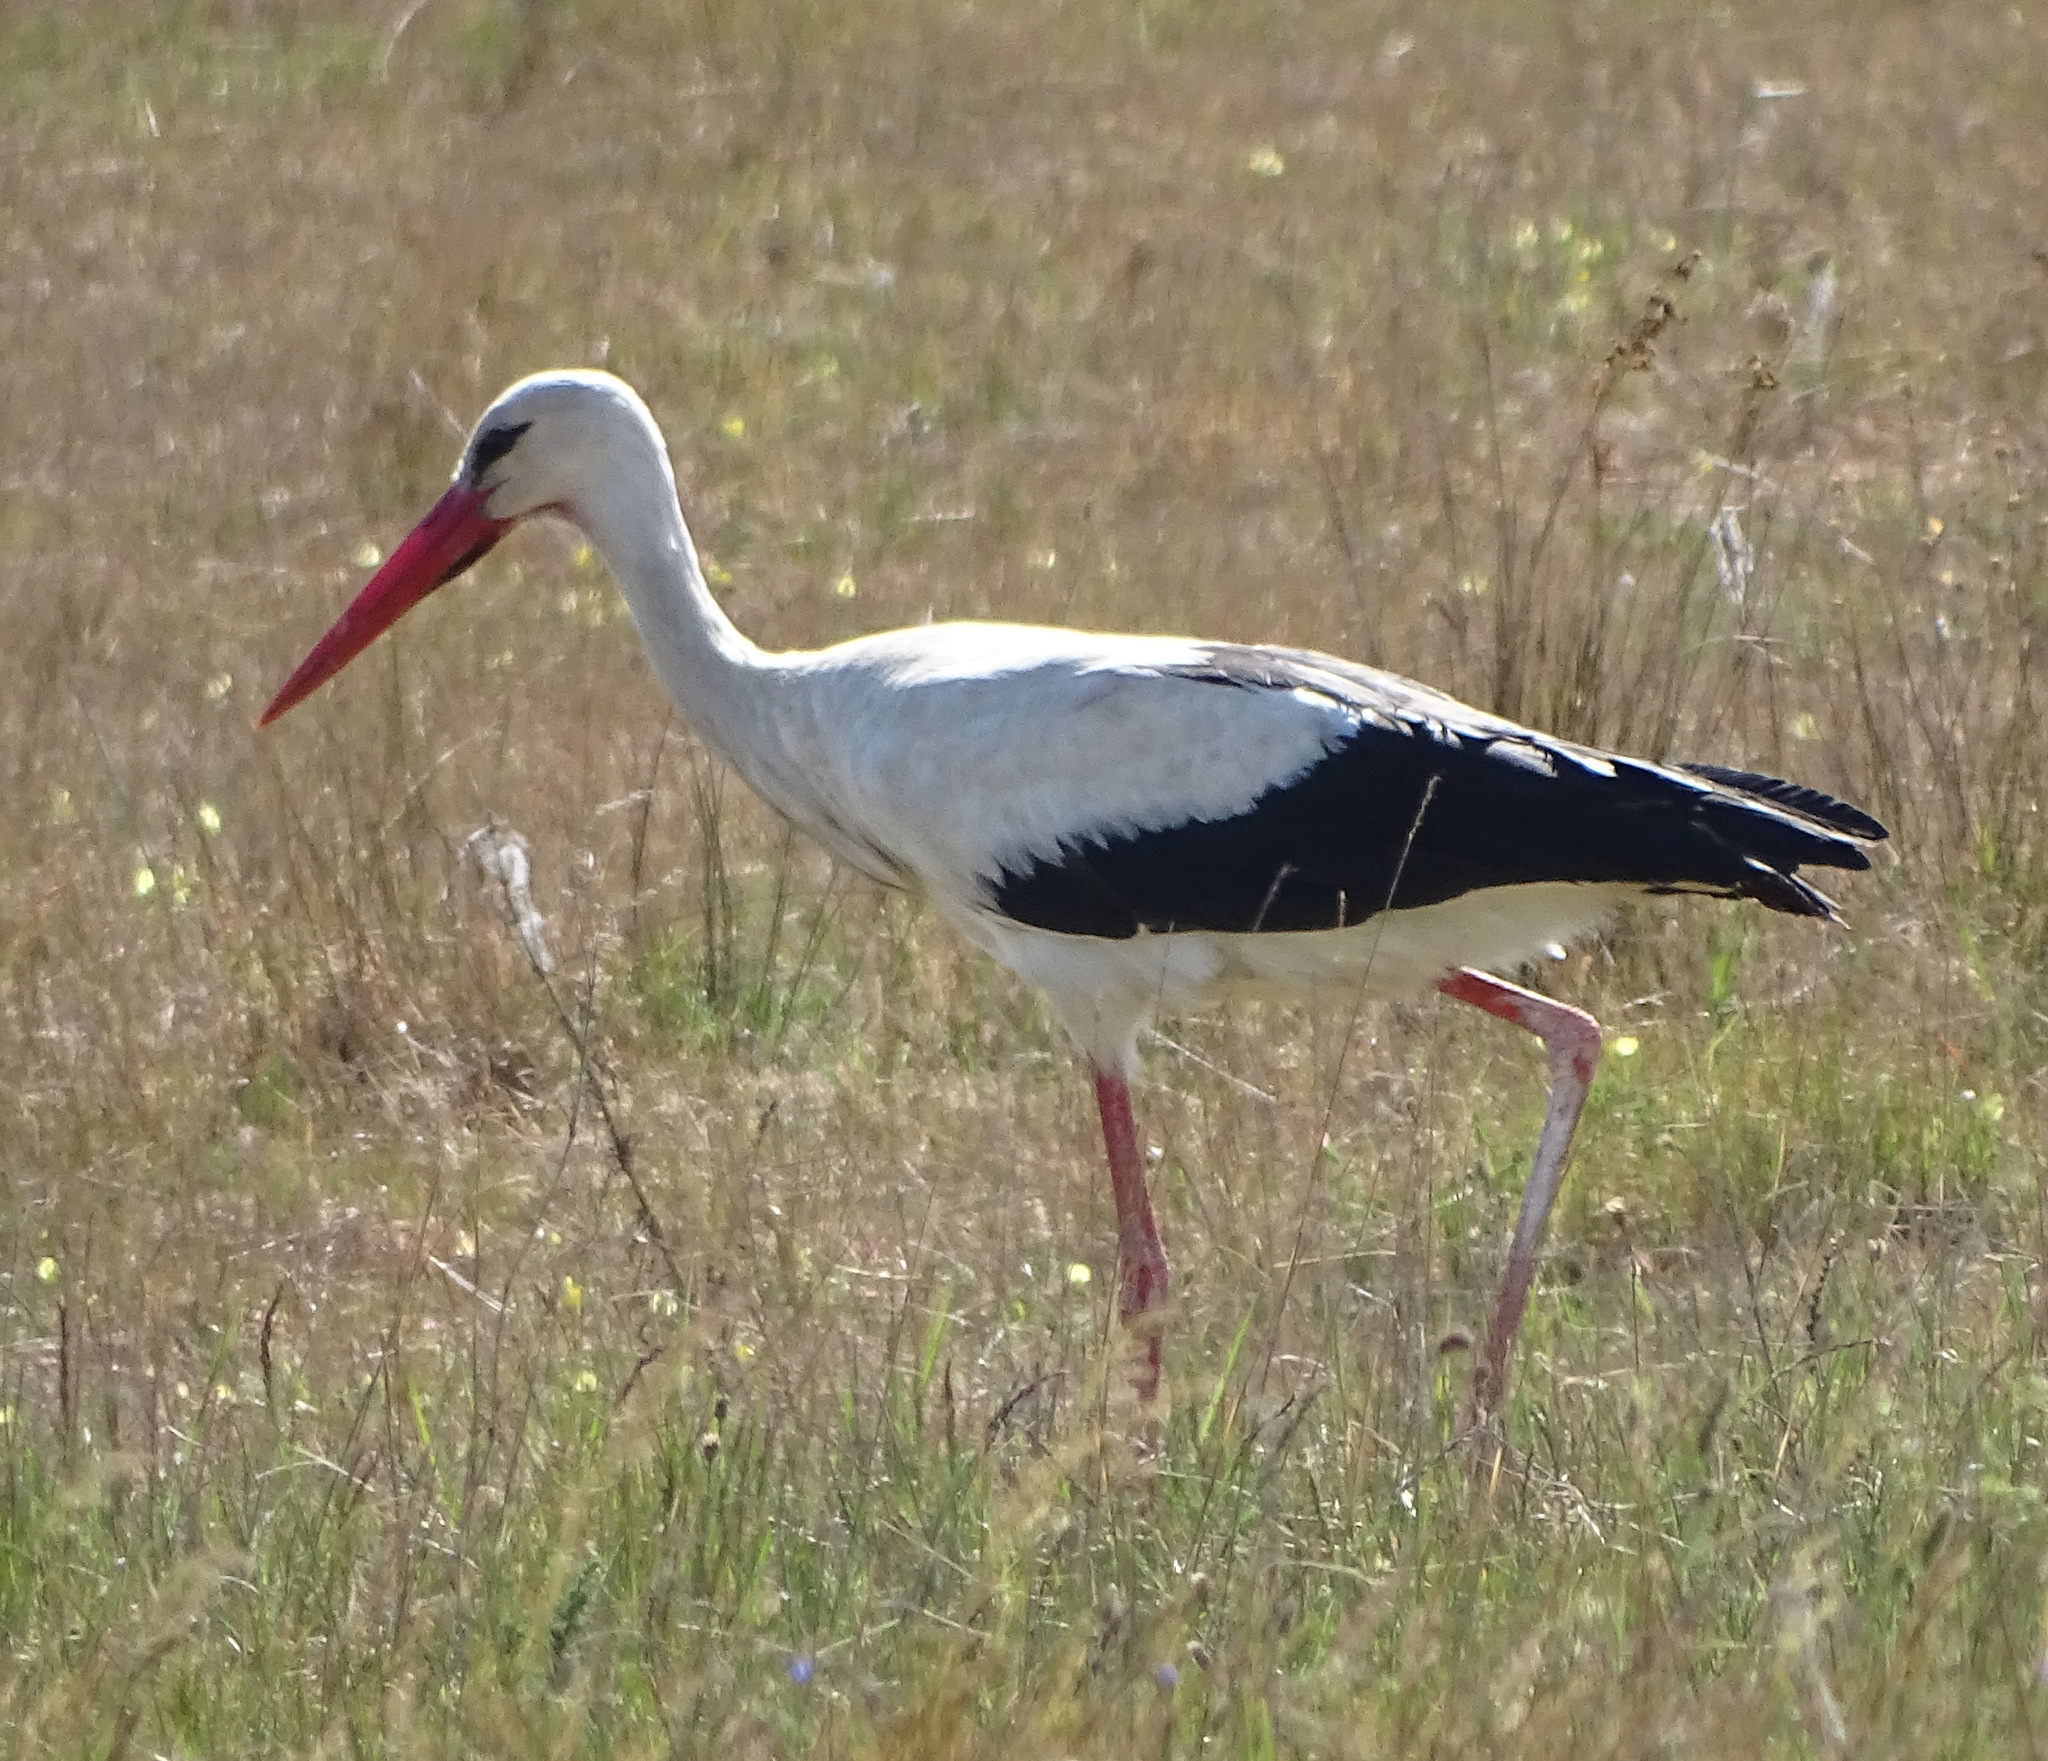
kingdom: Animalia
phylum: Chordata
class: Aves
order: Ciconiiformes
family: Ciconiidae
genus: Ciconia
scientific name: Ciconia ciconia
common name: White stork
